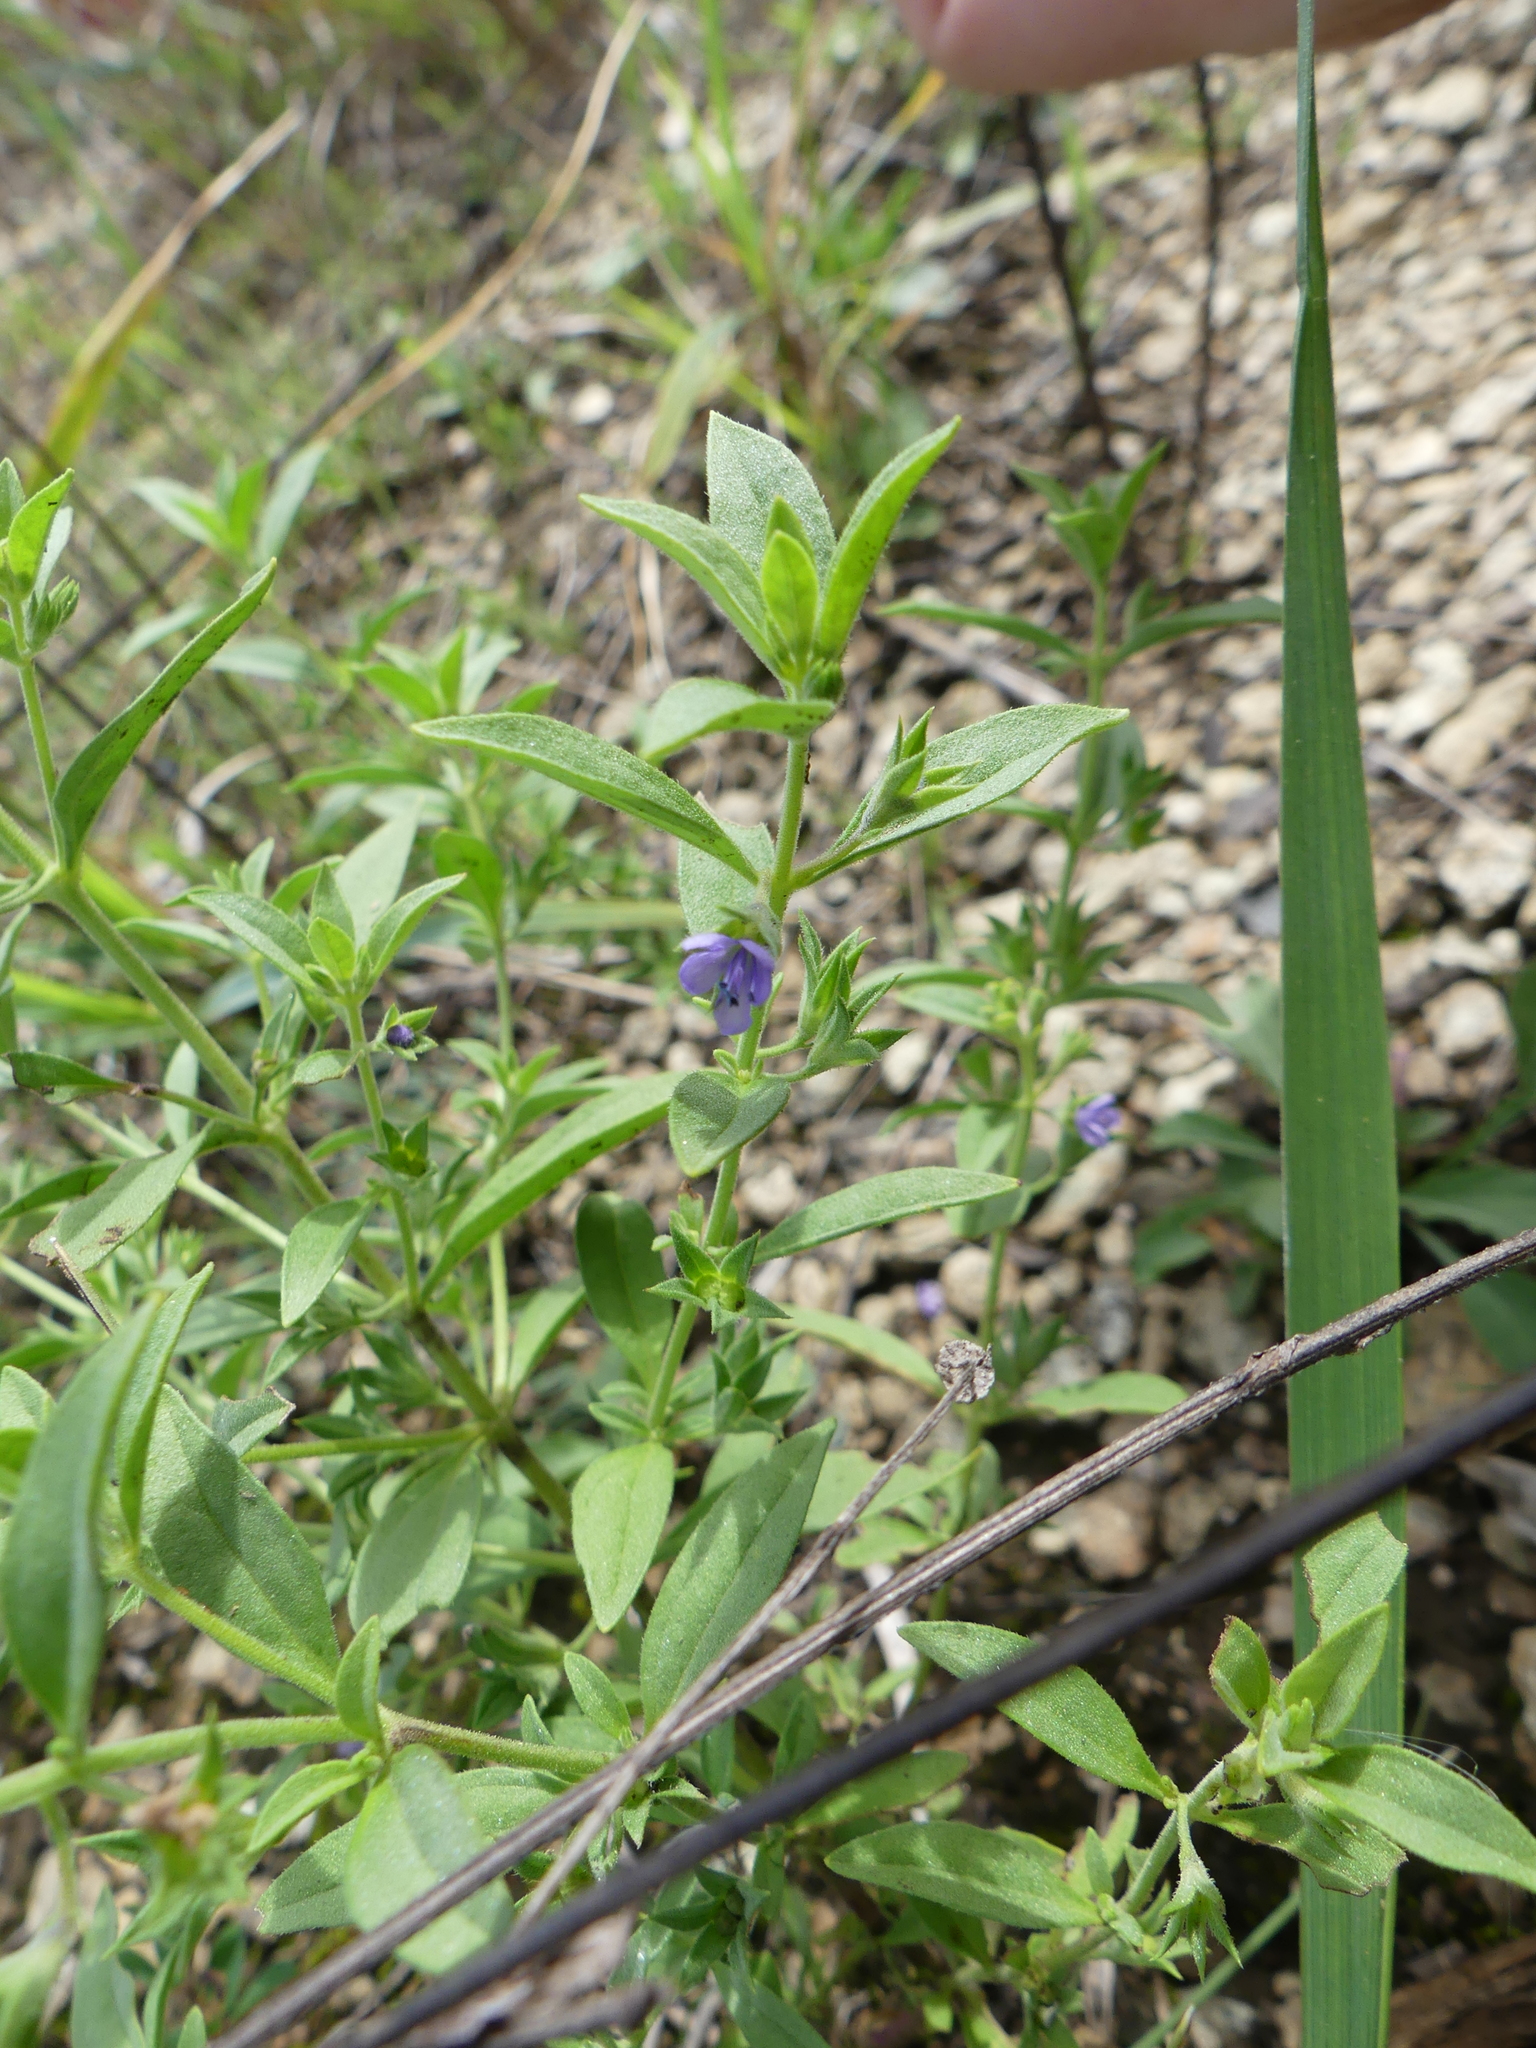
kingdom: Plantae
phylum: Tracheophyta
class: Magnoliopsida
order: Lamiales
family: Lamiaceae
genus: Trichostema
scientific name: Trichostema brachiatum
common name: False pennyroyal
